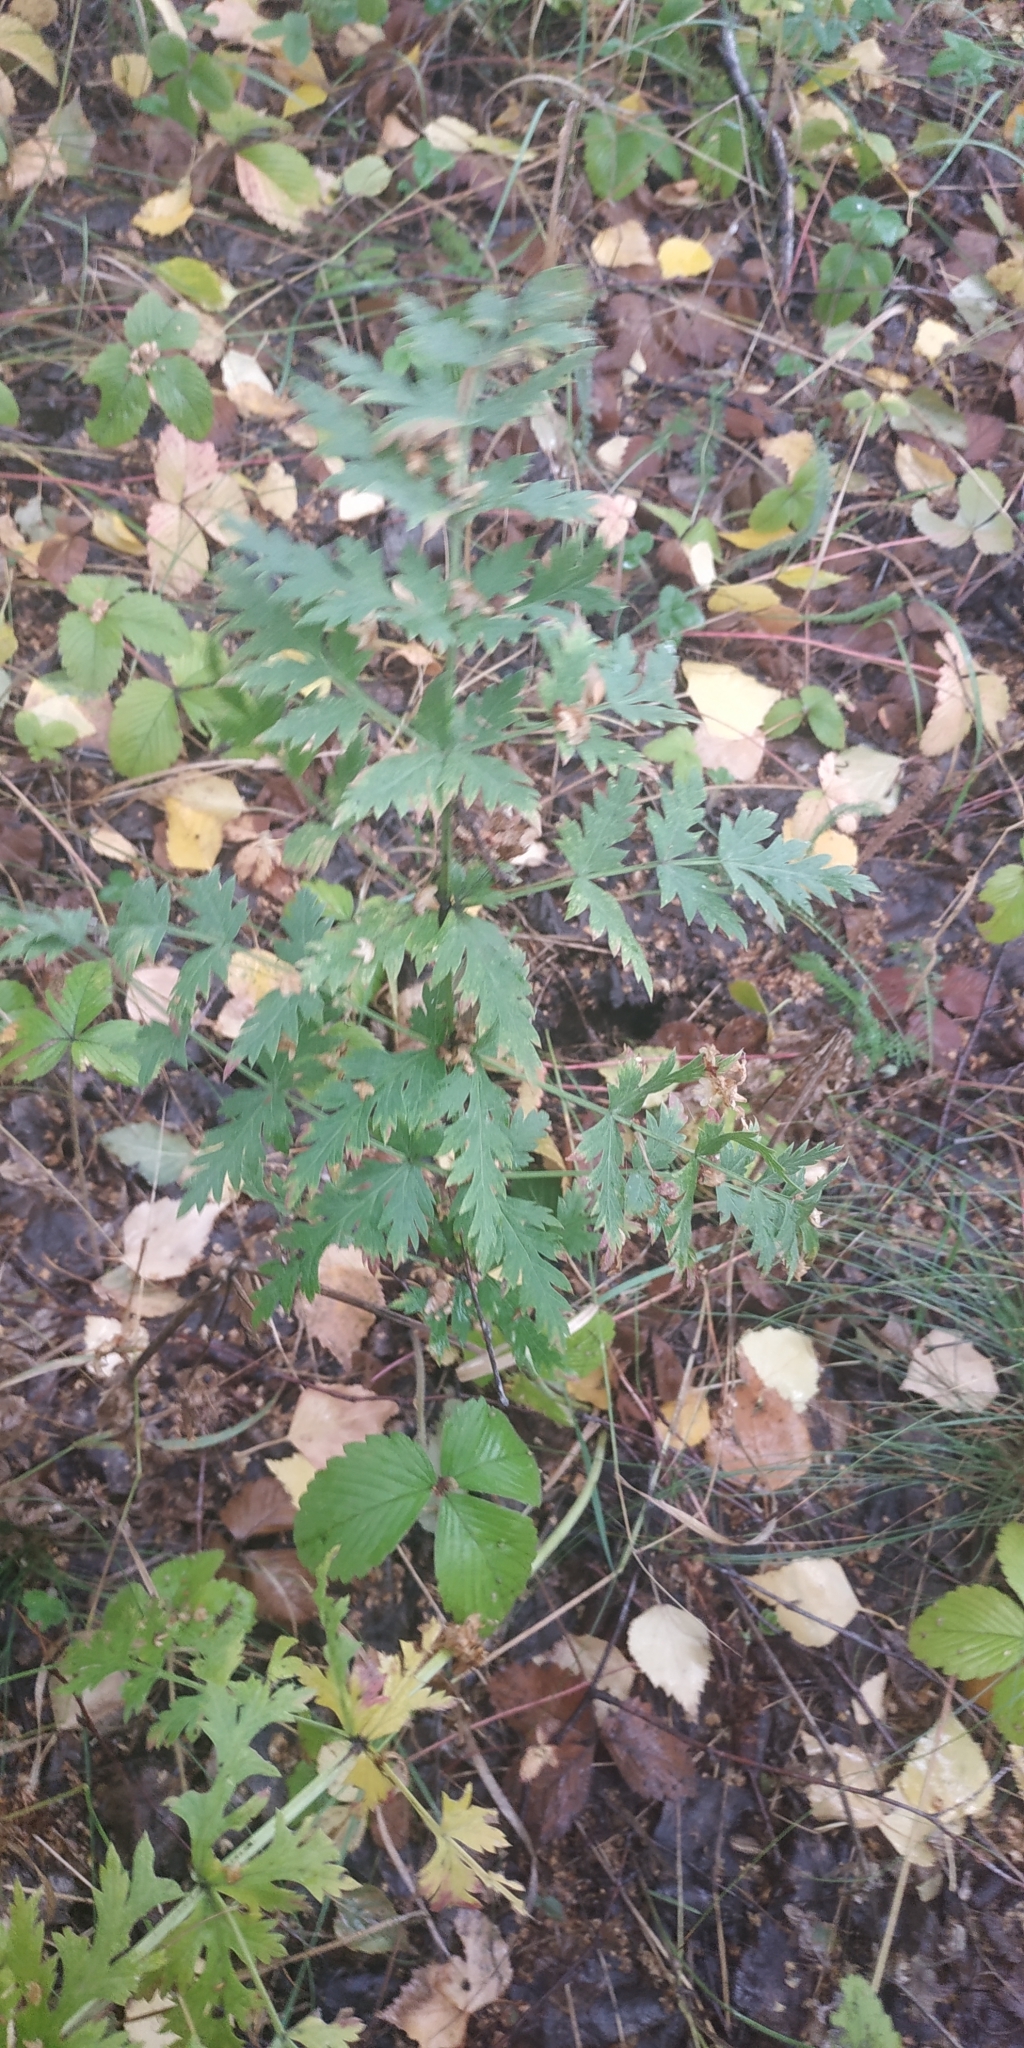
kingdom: Plantae
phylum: Tracheophyta
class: Magnoliopsida
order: Apiales
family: Apiaceae
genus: Seseli
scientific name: Seseli libanotis
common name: Mooncarrot
